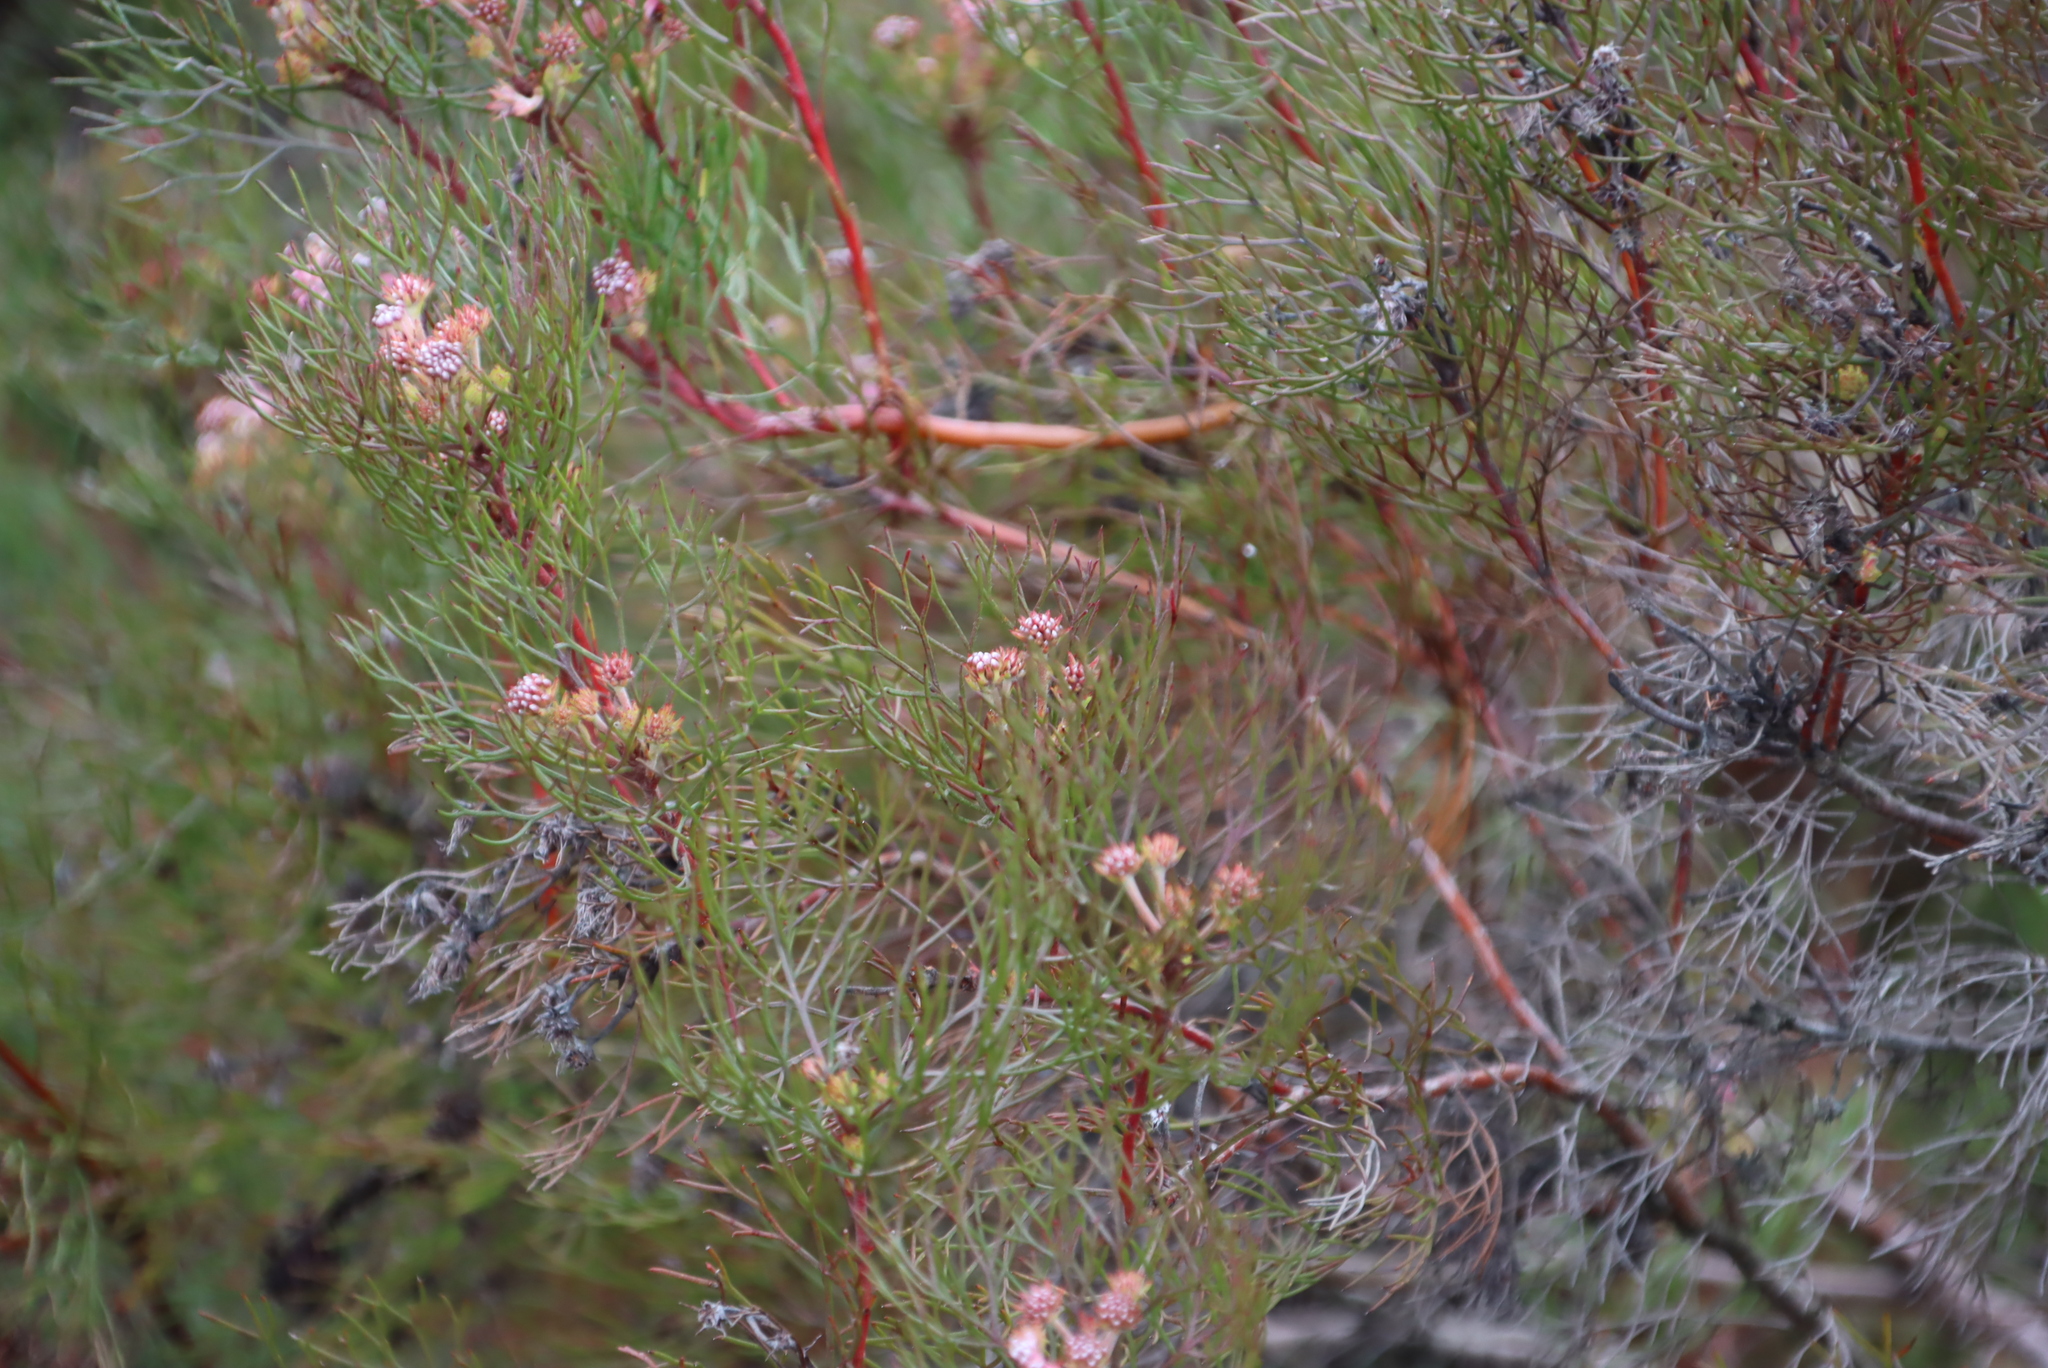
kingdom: Plantae
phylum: Tracheophyta
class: Magnoliopsida
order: Proteales
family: Proteaceae
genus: Serruria
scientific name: Serruria fasciflora
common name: Common pin spiderhead
